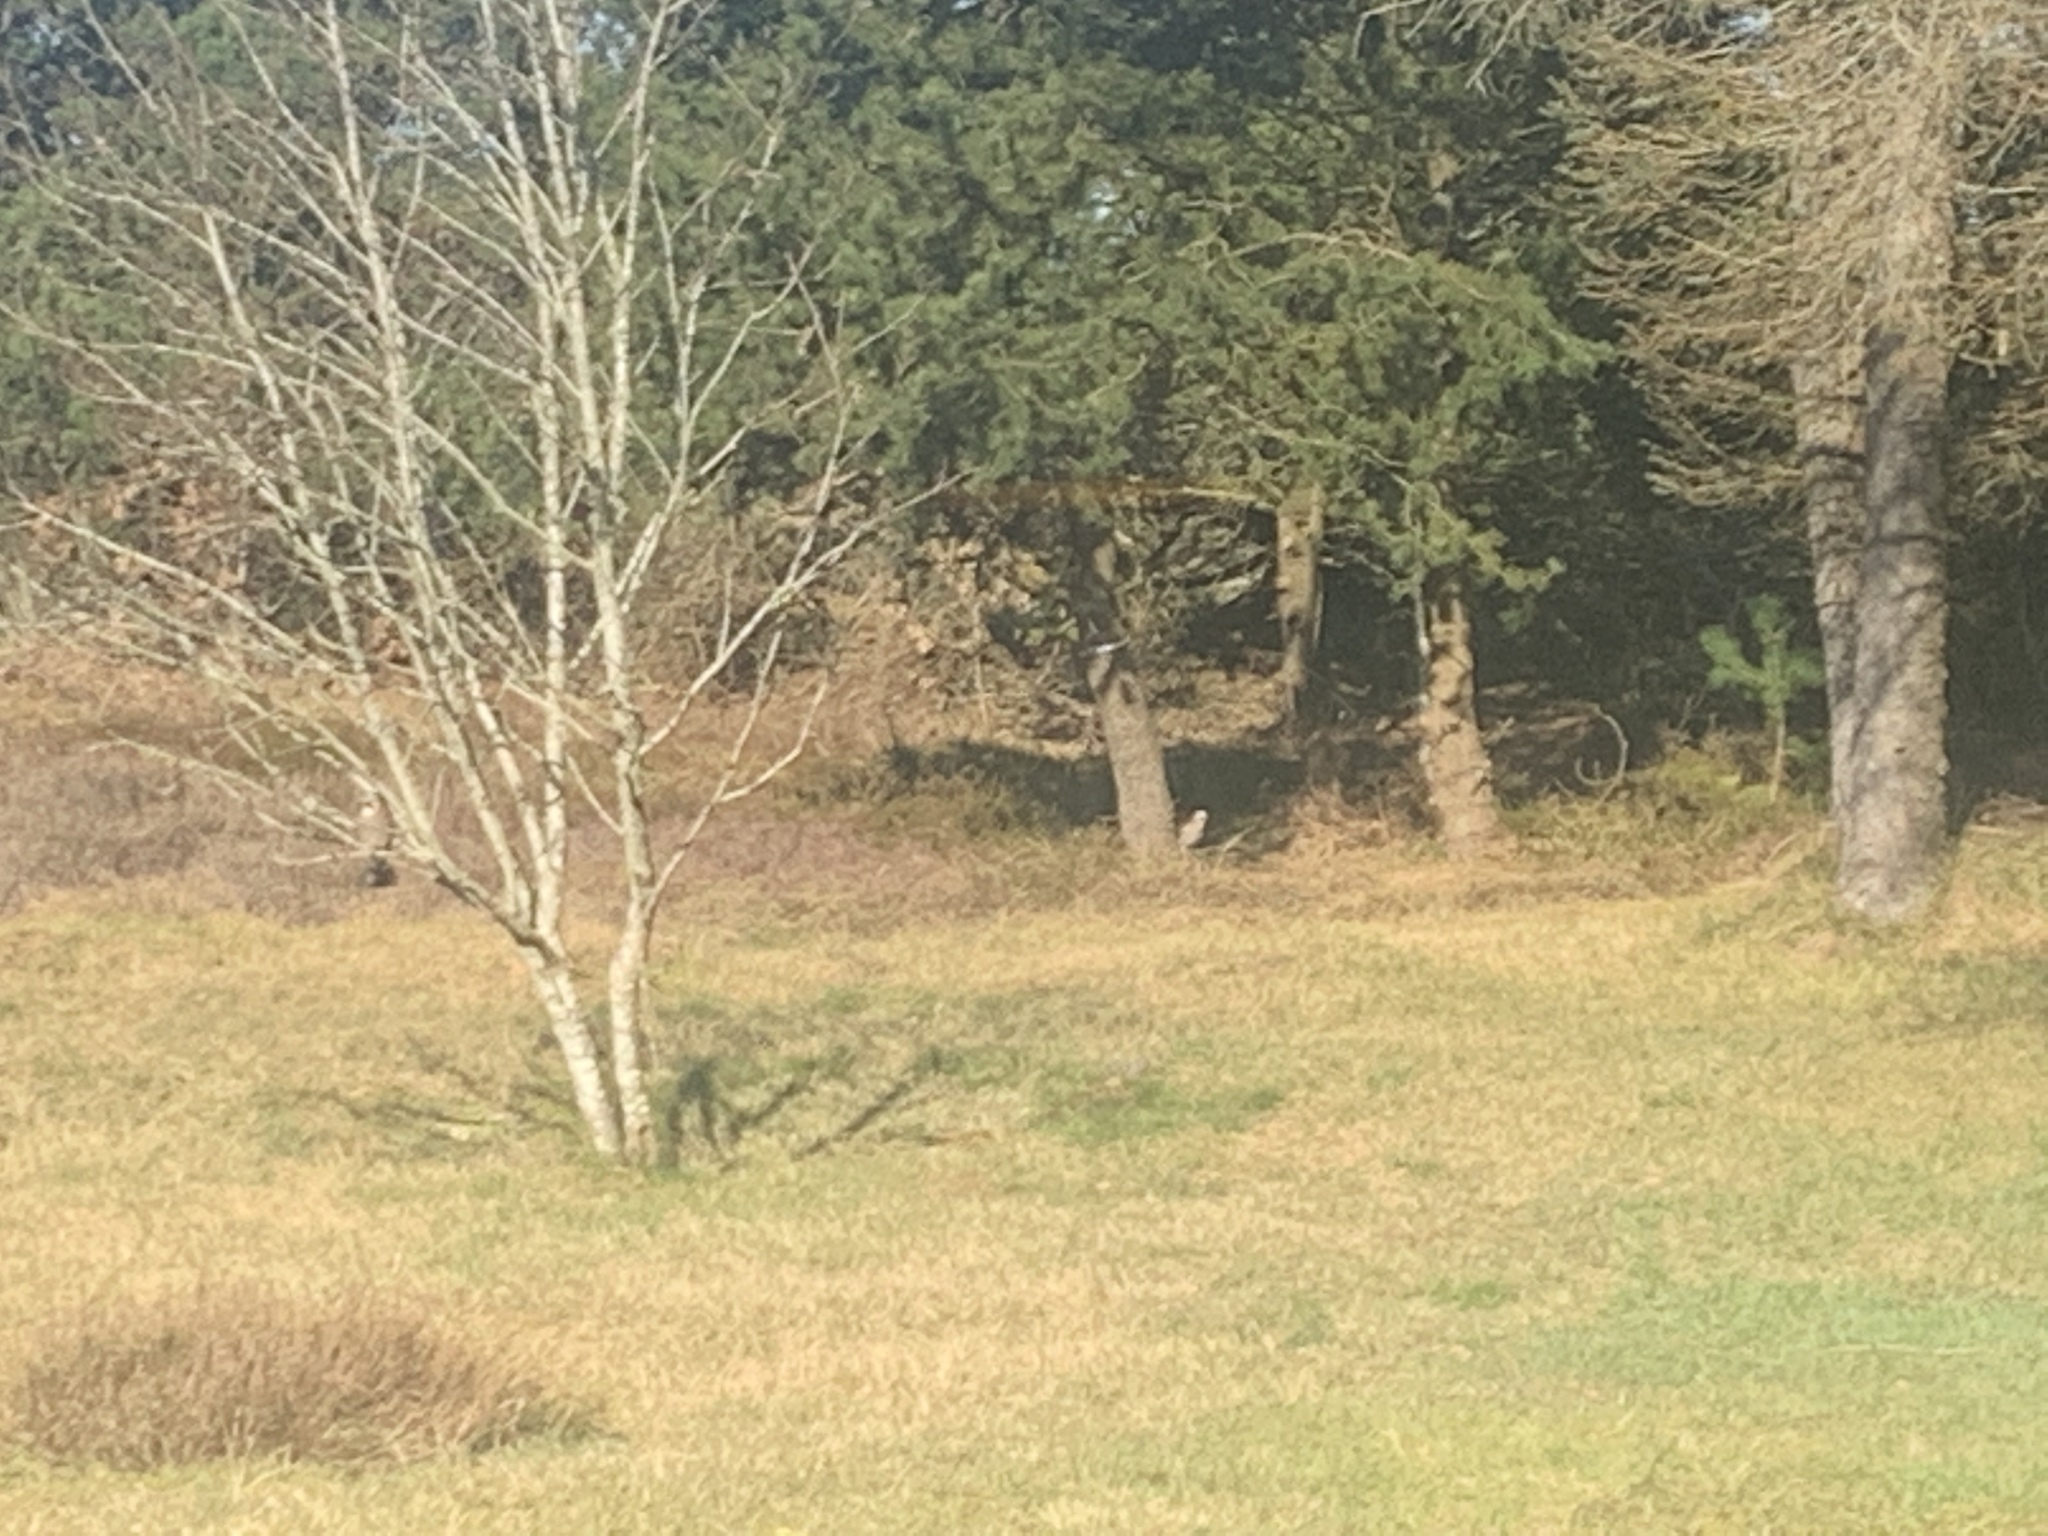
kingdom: Animalia
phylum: Chordata
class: Aves
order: Passeriformes
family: Corvidae
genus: Garrulus
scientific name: Garrulus glandarius
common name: Eurasian jay
